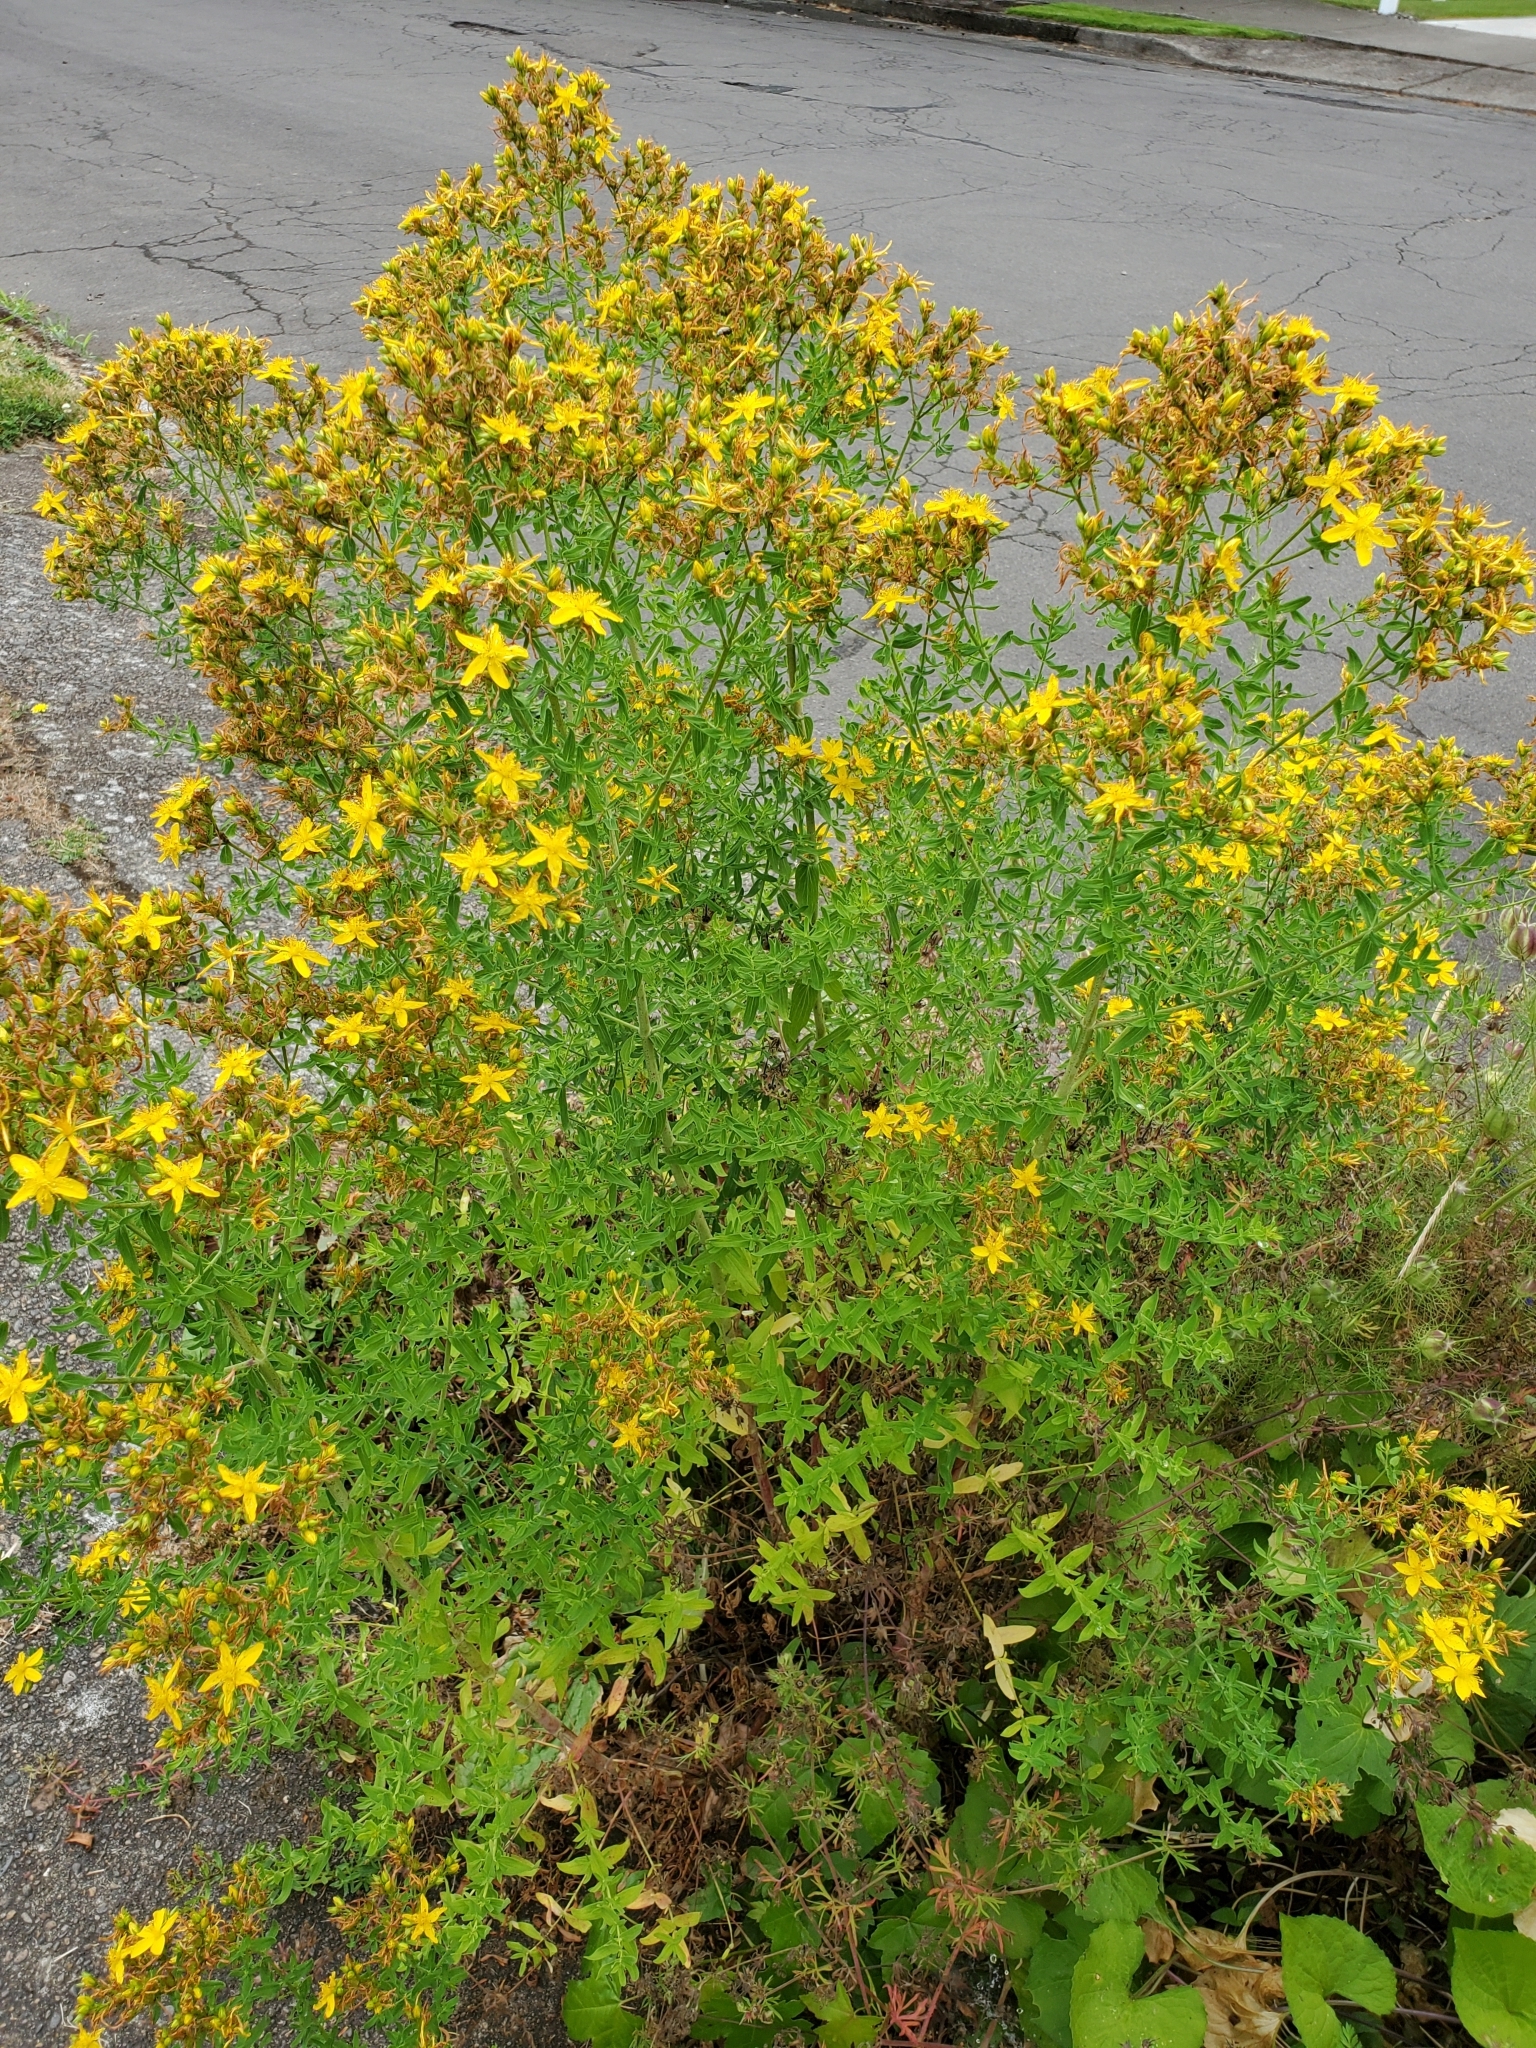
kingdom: Plantae
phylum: Tracheophyta
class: Magnoliopsida
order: Malpighiales
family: Hypericaceae
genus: Hypericum
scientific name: Hypericum perforatum
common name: Common st. johnswort
